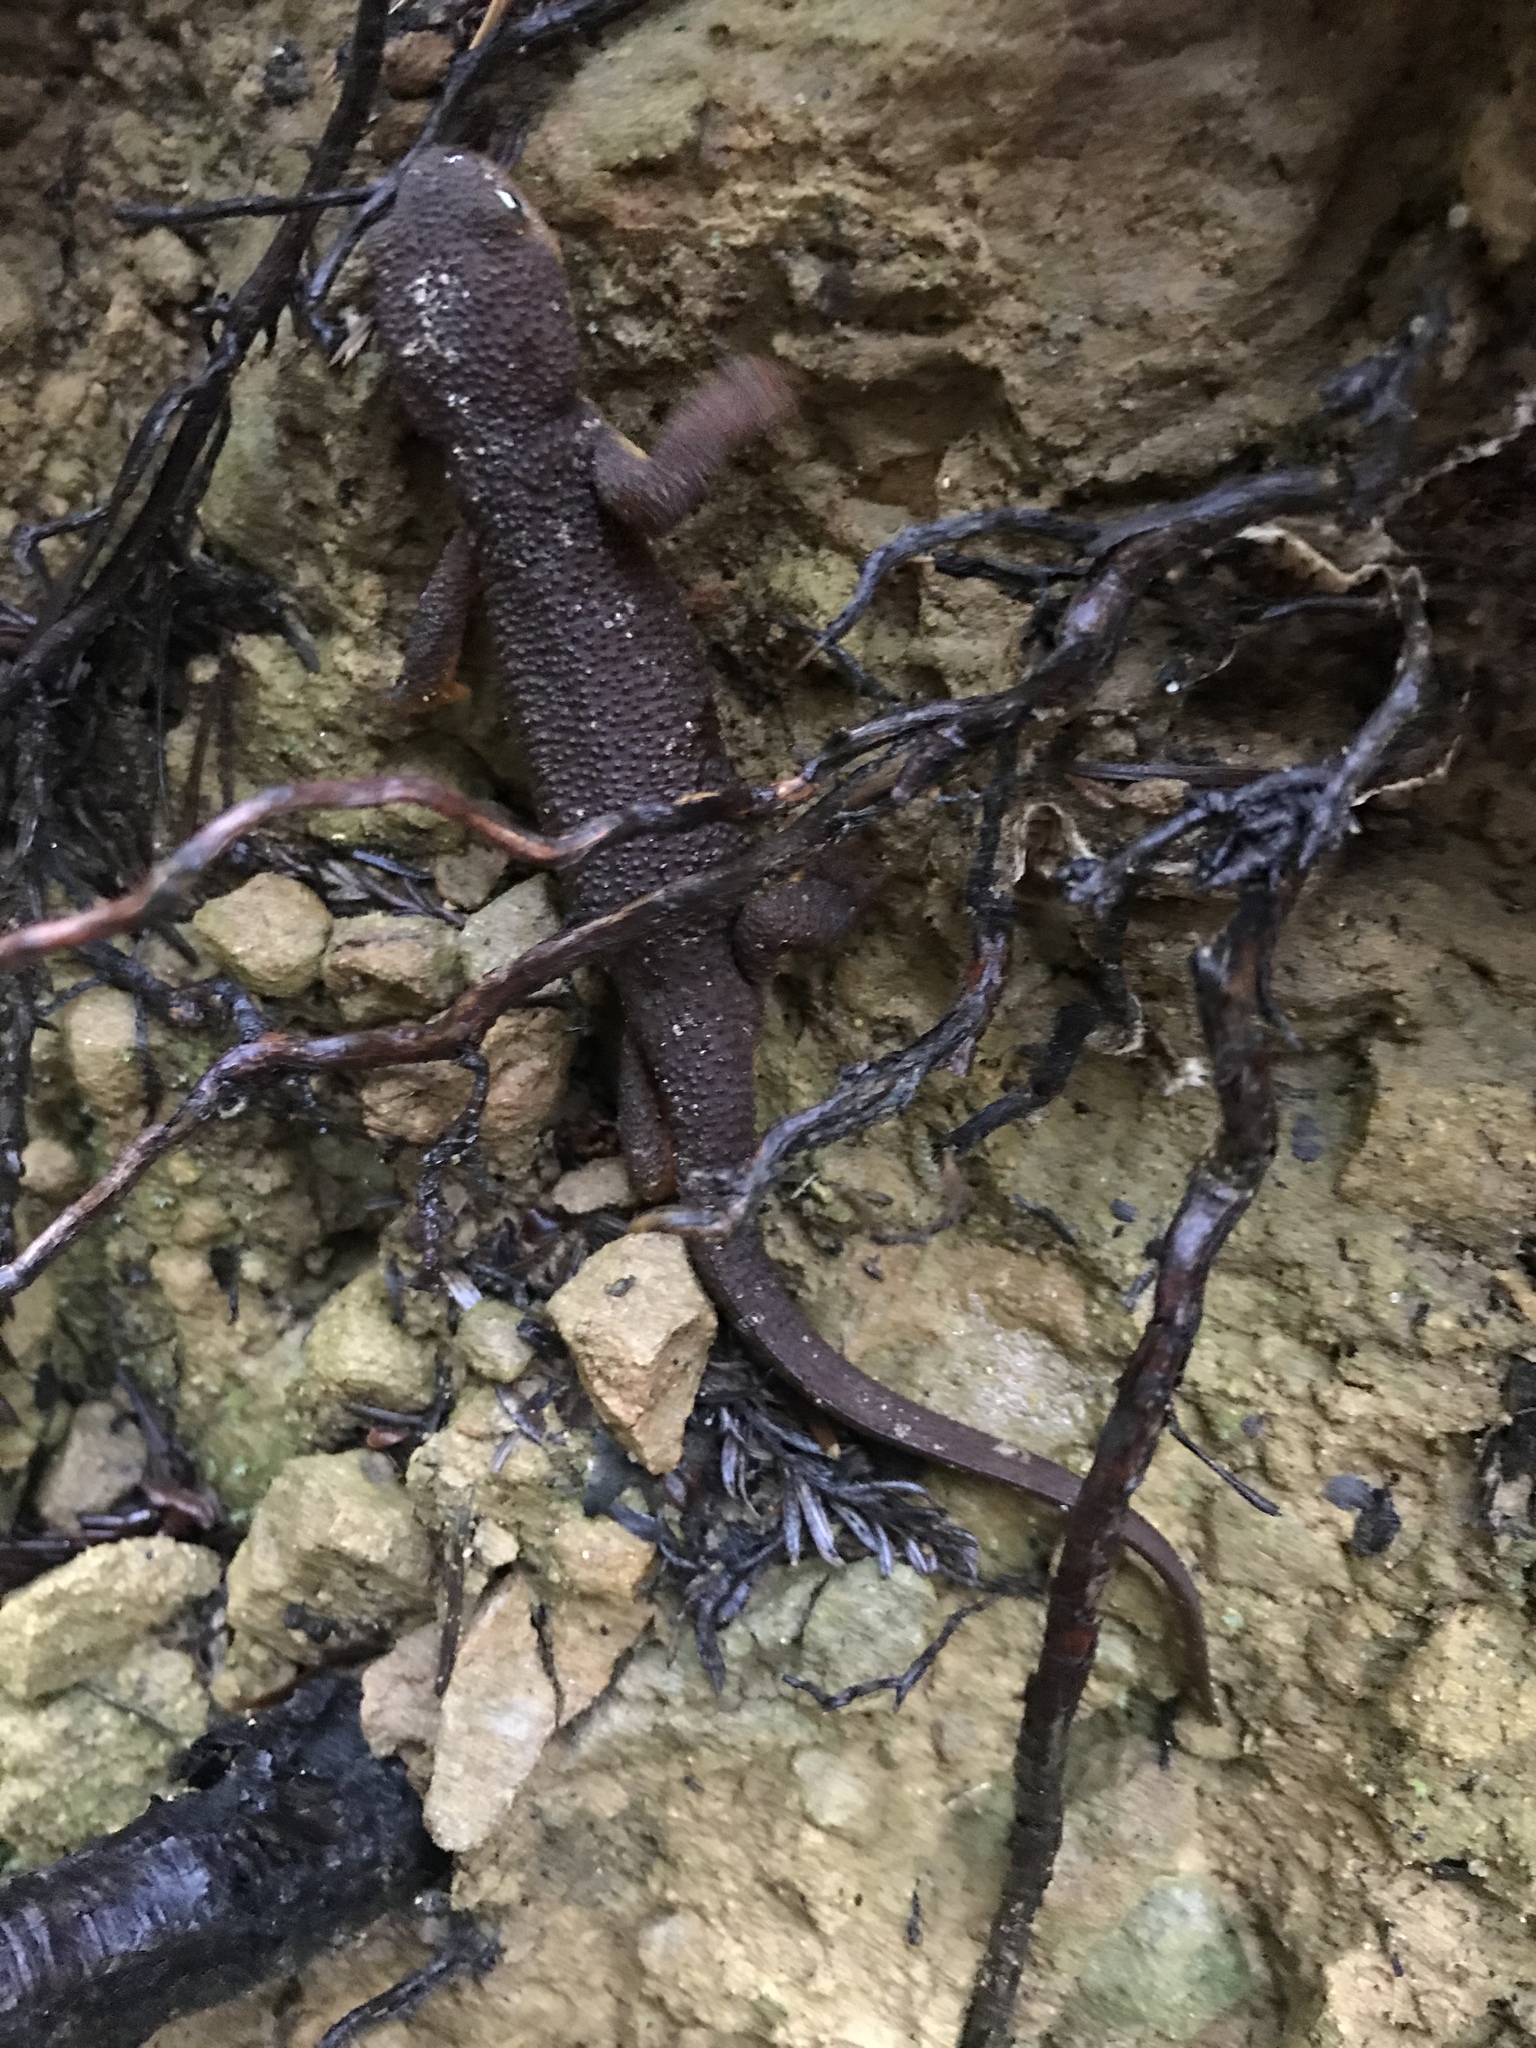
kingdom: Animalia
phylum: Chordata
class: Amphibia
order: Caudata
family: Salamandridae
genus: Taricha
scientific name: Taricha granulosa
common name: Roughskin newt
